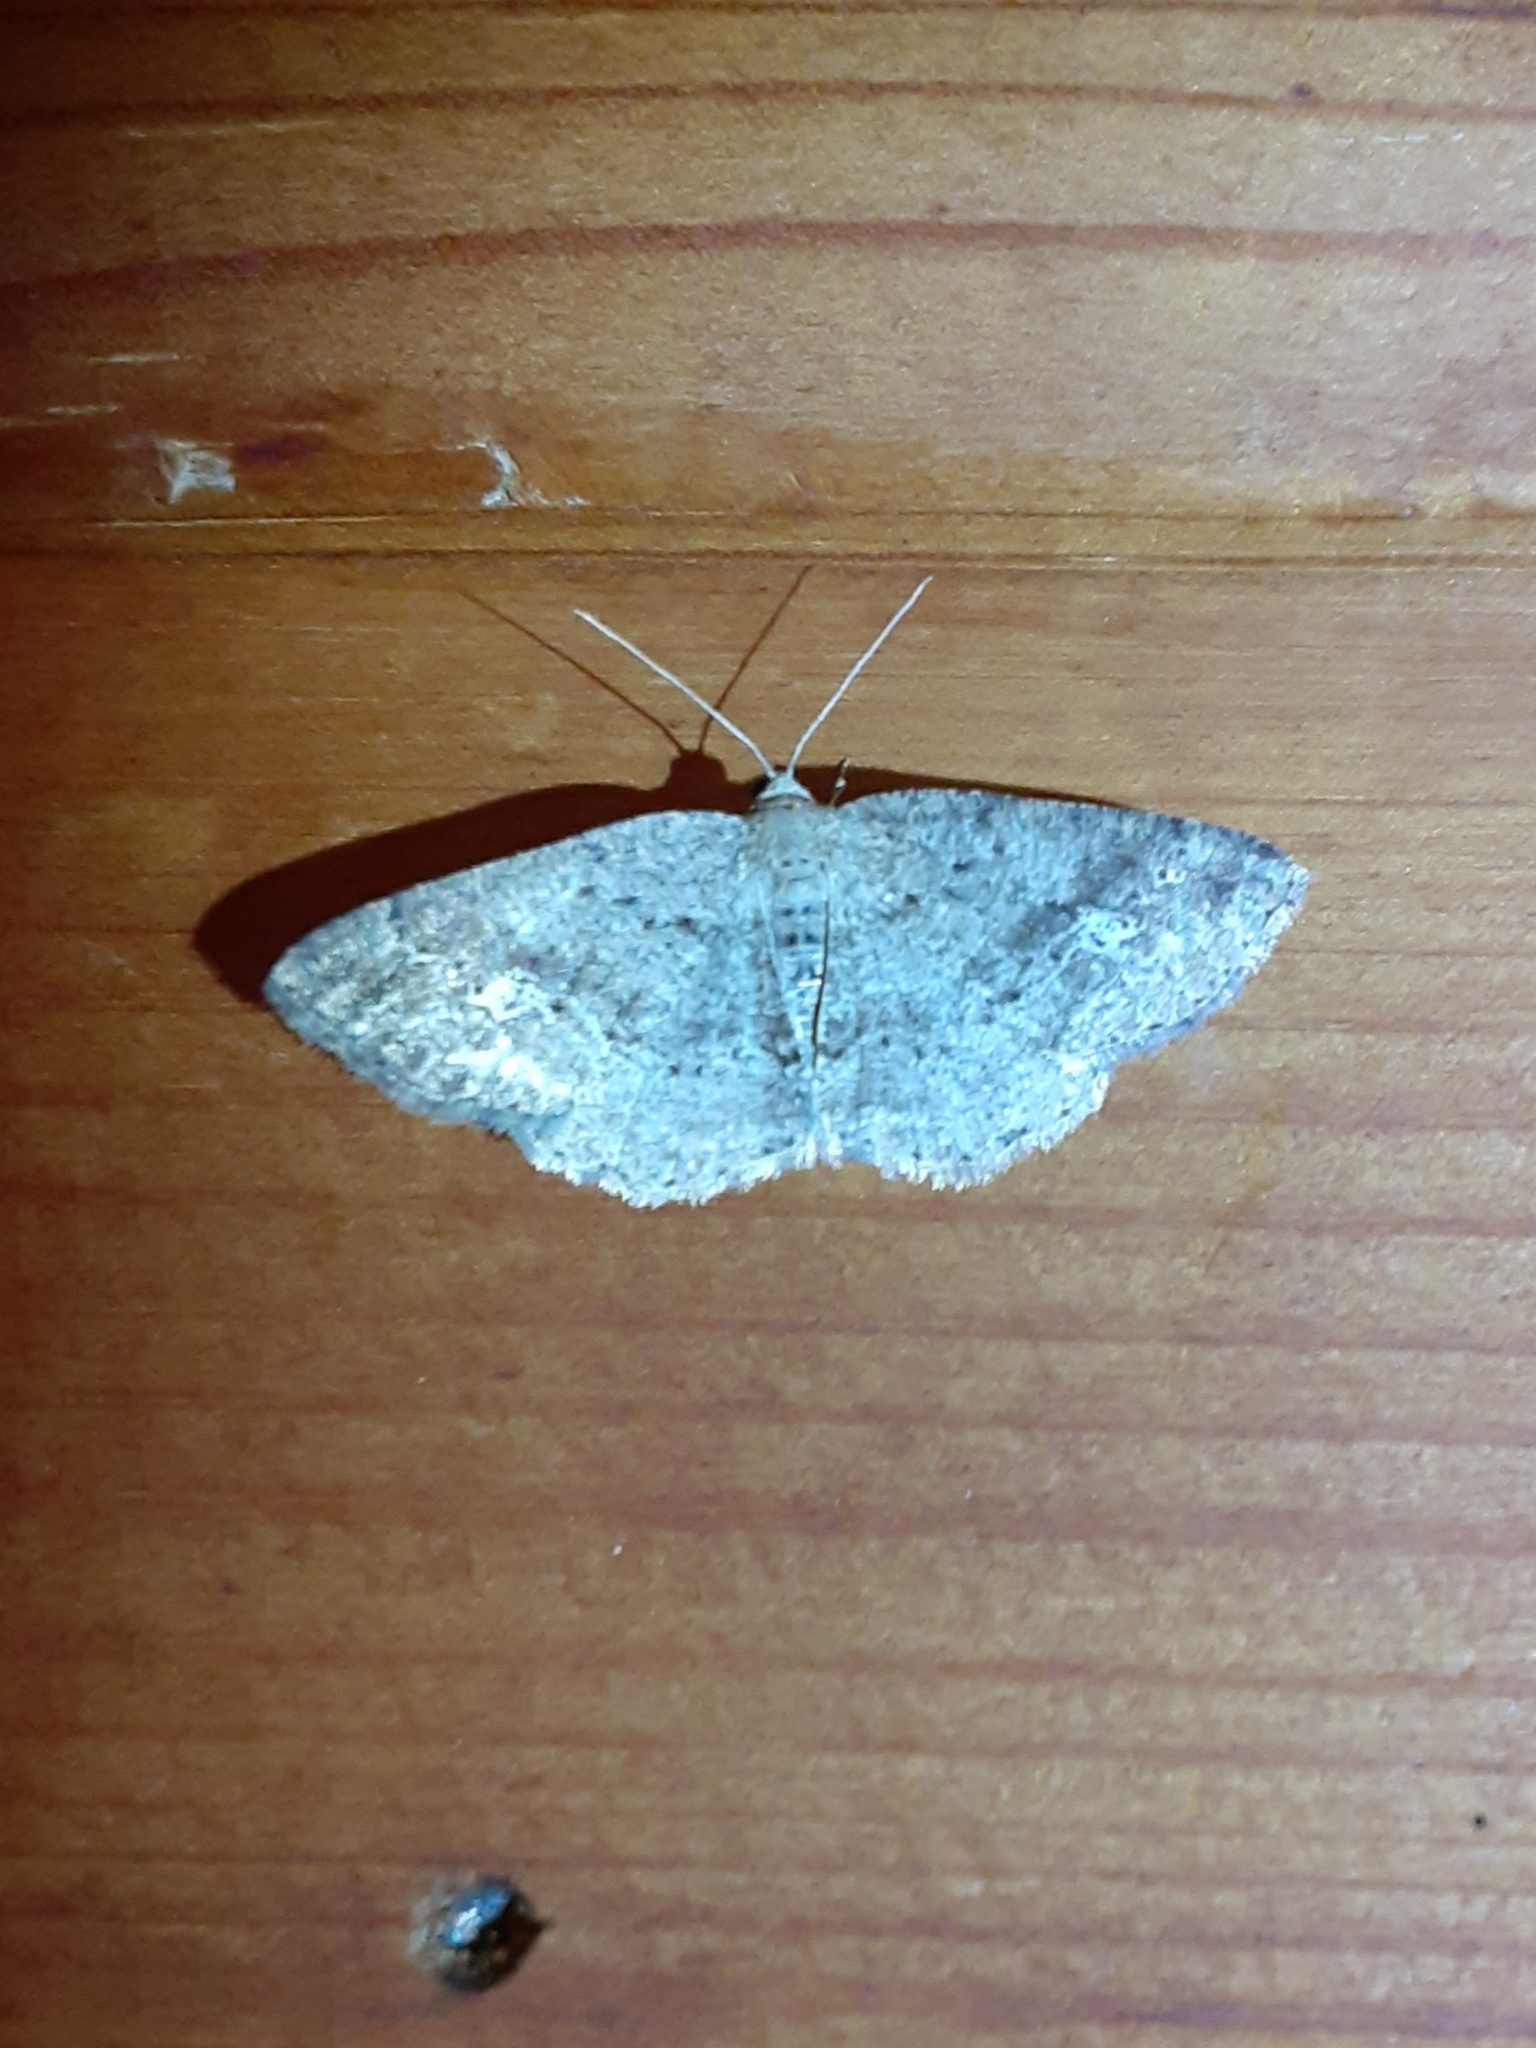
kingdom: Animalia
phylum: Arthropoda
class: Insecta
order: Lepidoptera
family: Geometridae
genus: Homochlodes
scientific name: Homochlodes fritillaria
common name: Pale homochlodes
